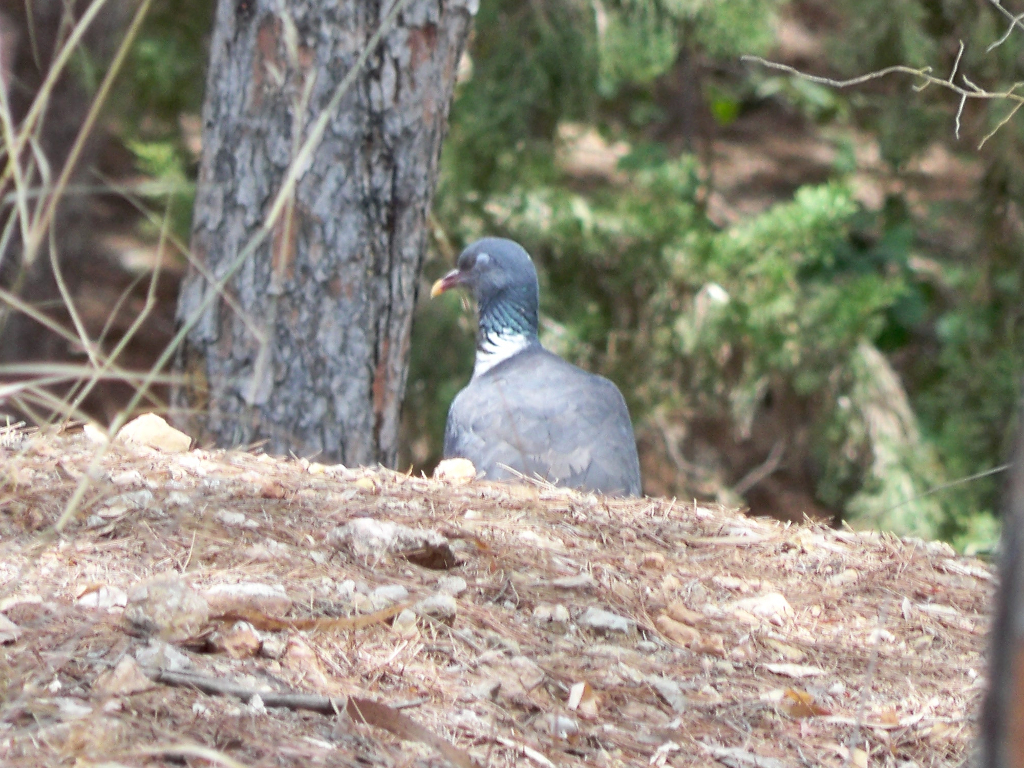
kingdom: Animalia
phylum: Chordata
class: Aves
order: Columbiformes
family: Columbidae
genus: Columba
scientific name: Columba palumbus
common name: Common wood pigeon
